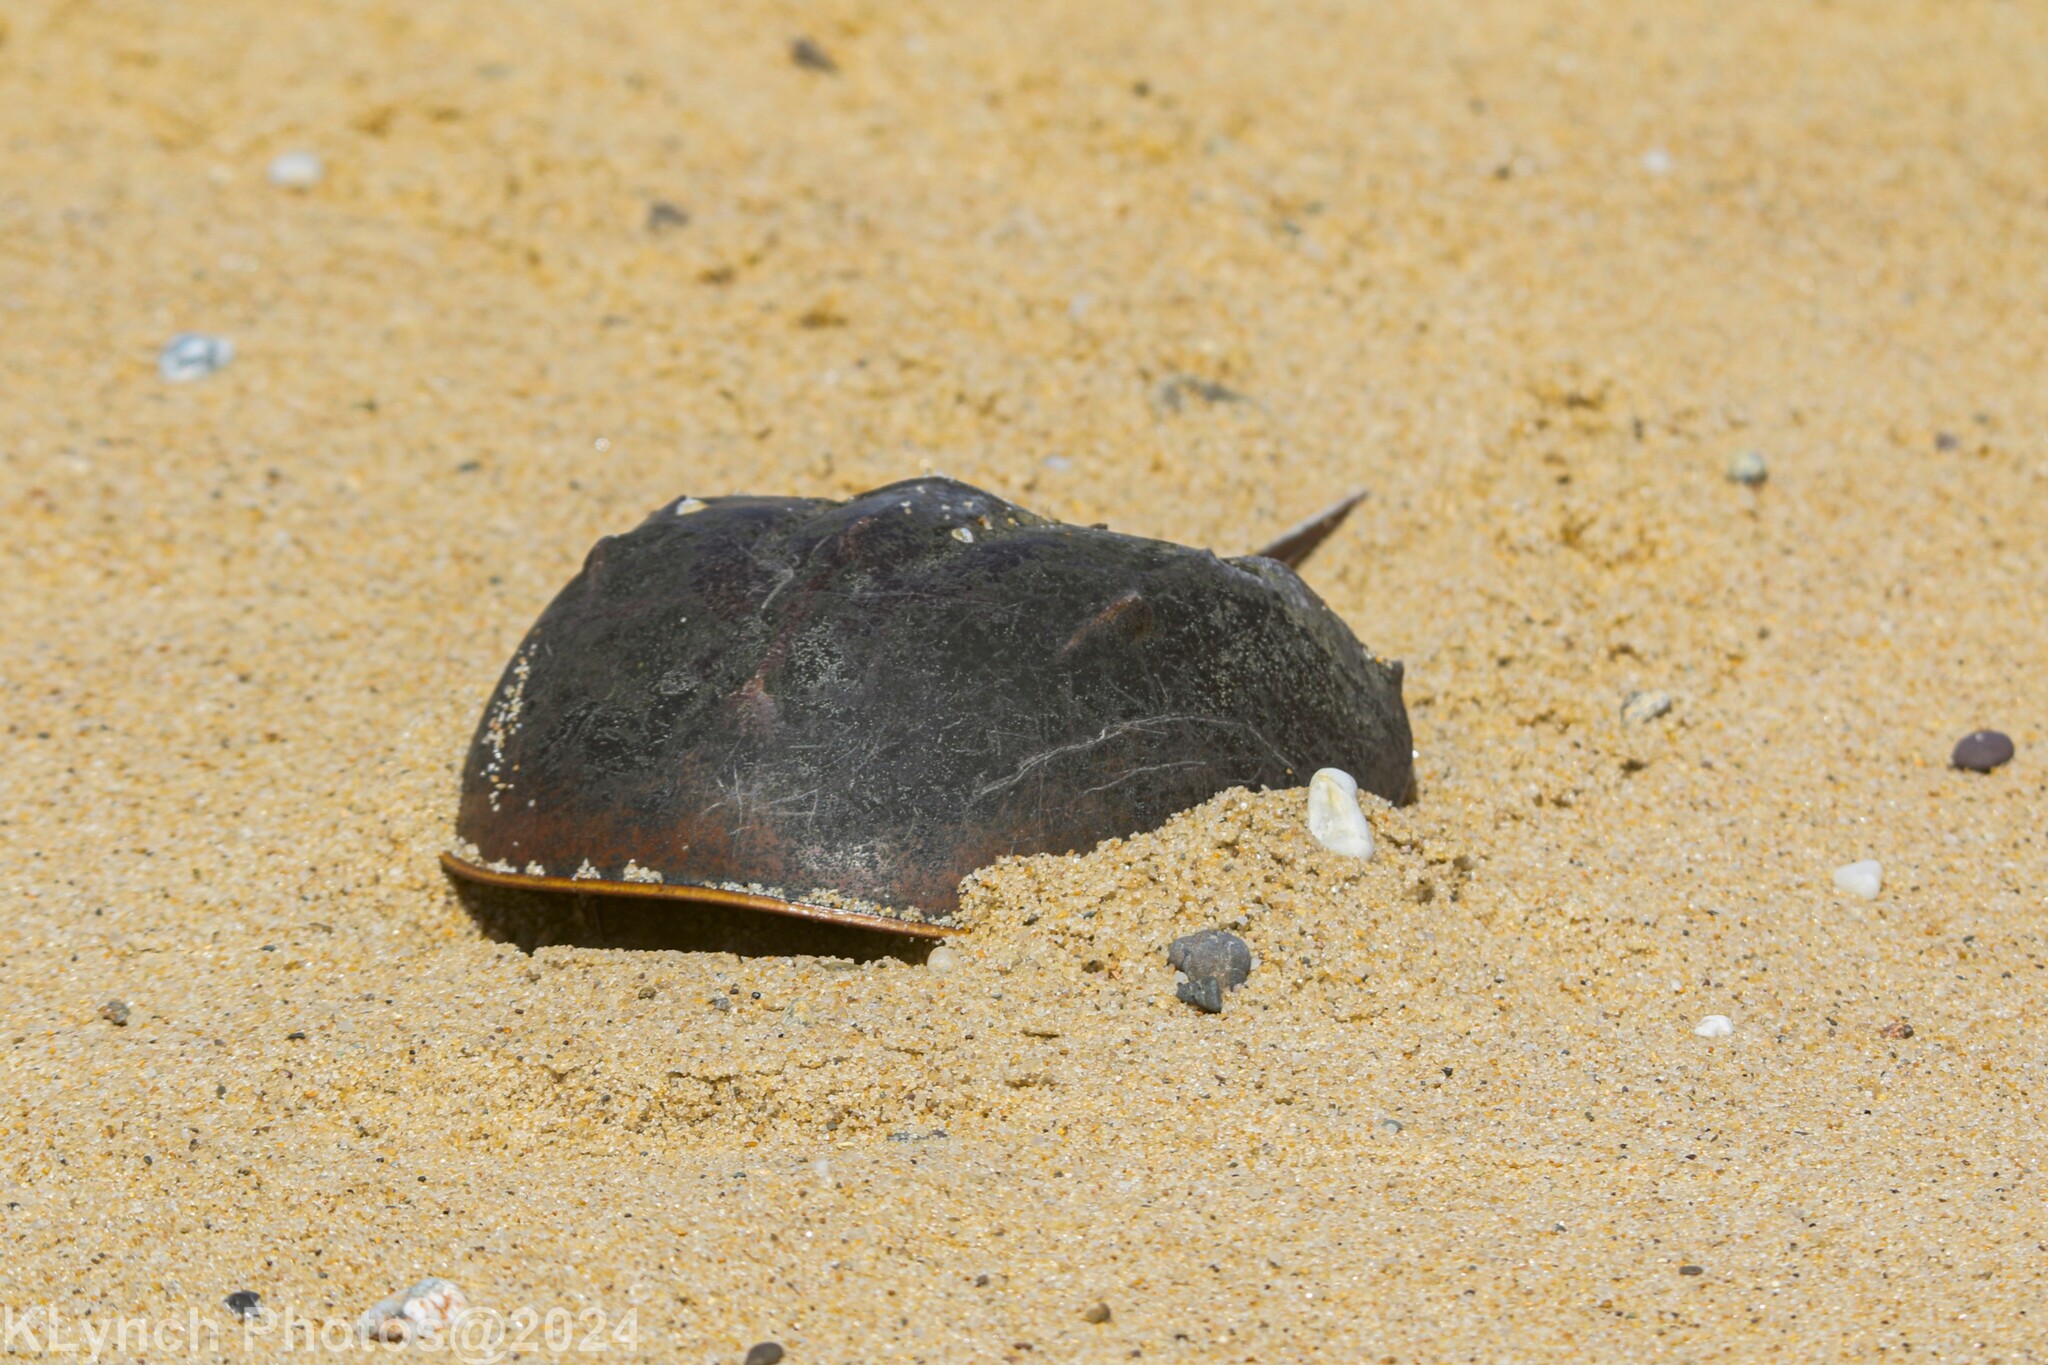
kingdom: Animalia
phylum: Arthropoda
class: Merostomata
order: Xiphosurida
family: Limulidae
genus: Limulus
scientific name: Limulus polyphemus
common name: Horseshoe crab
